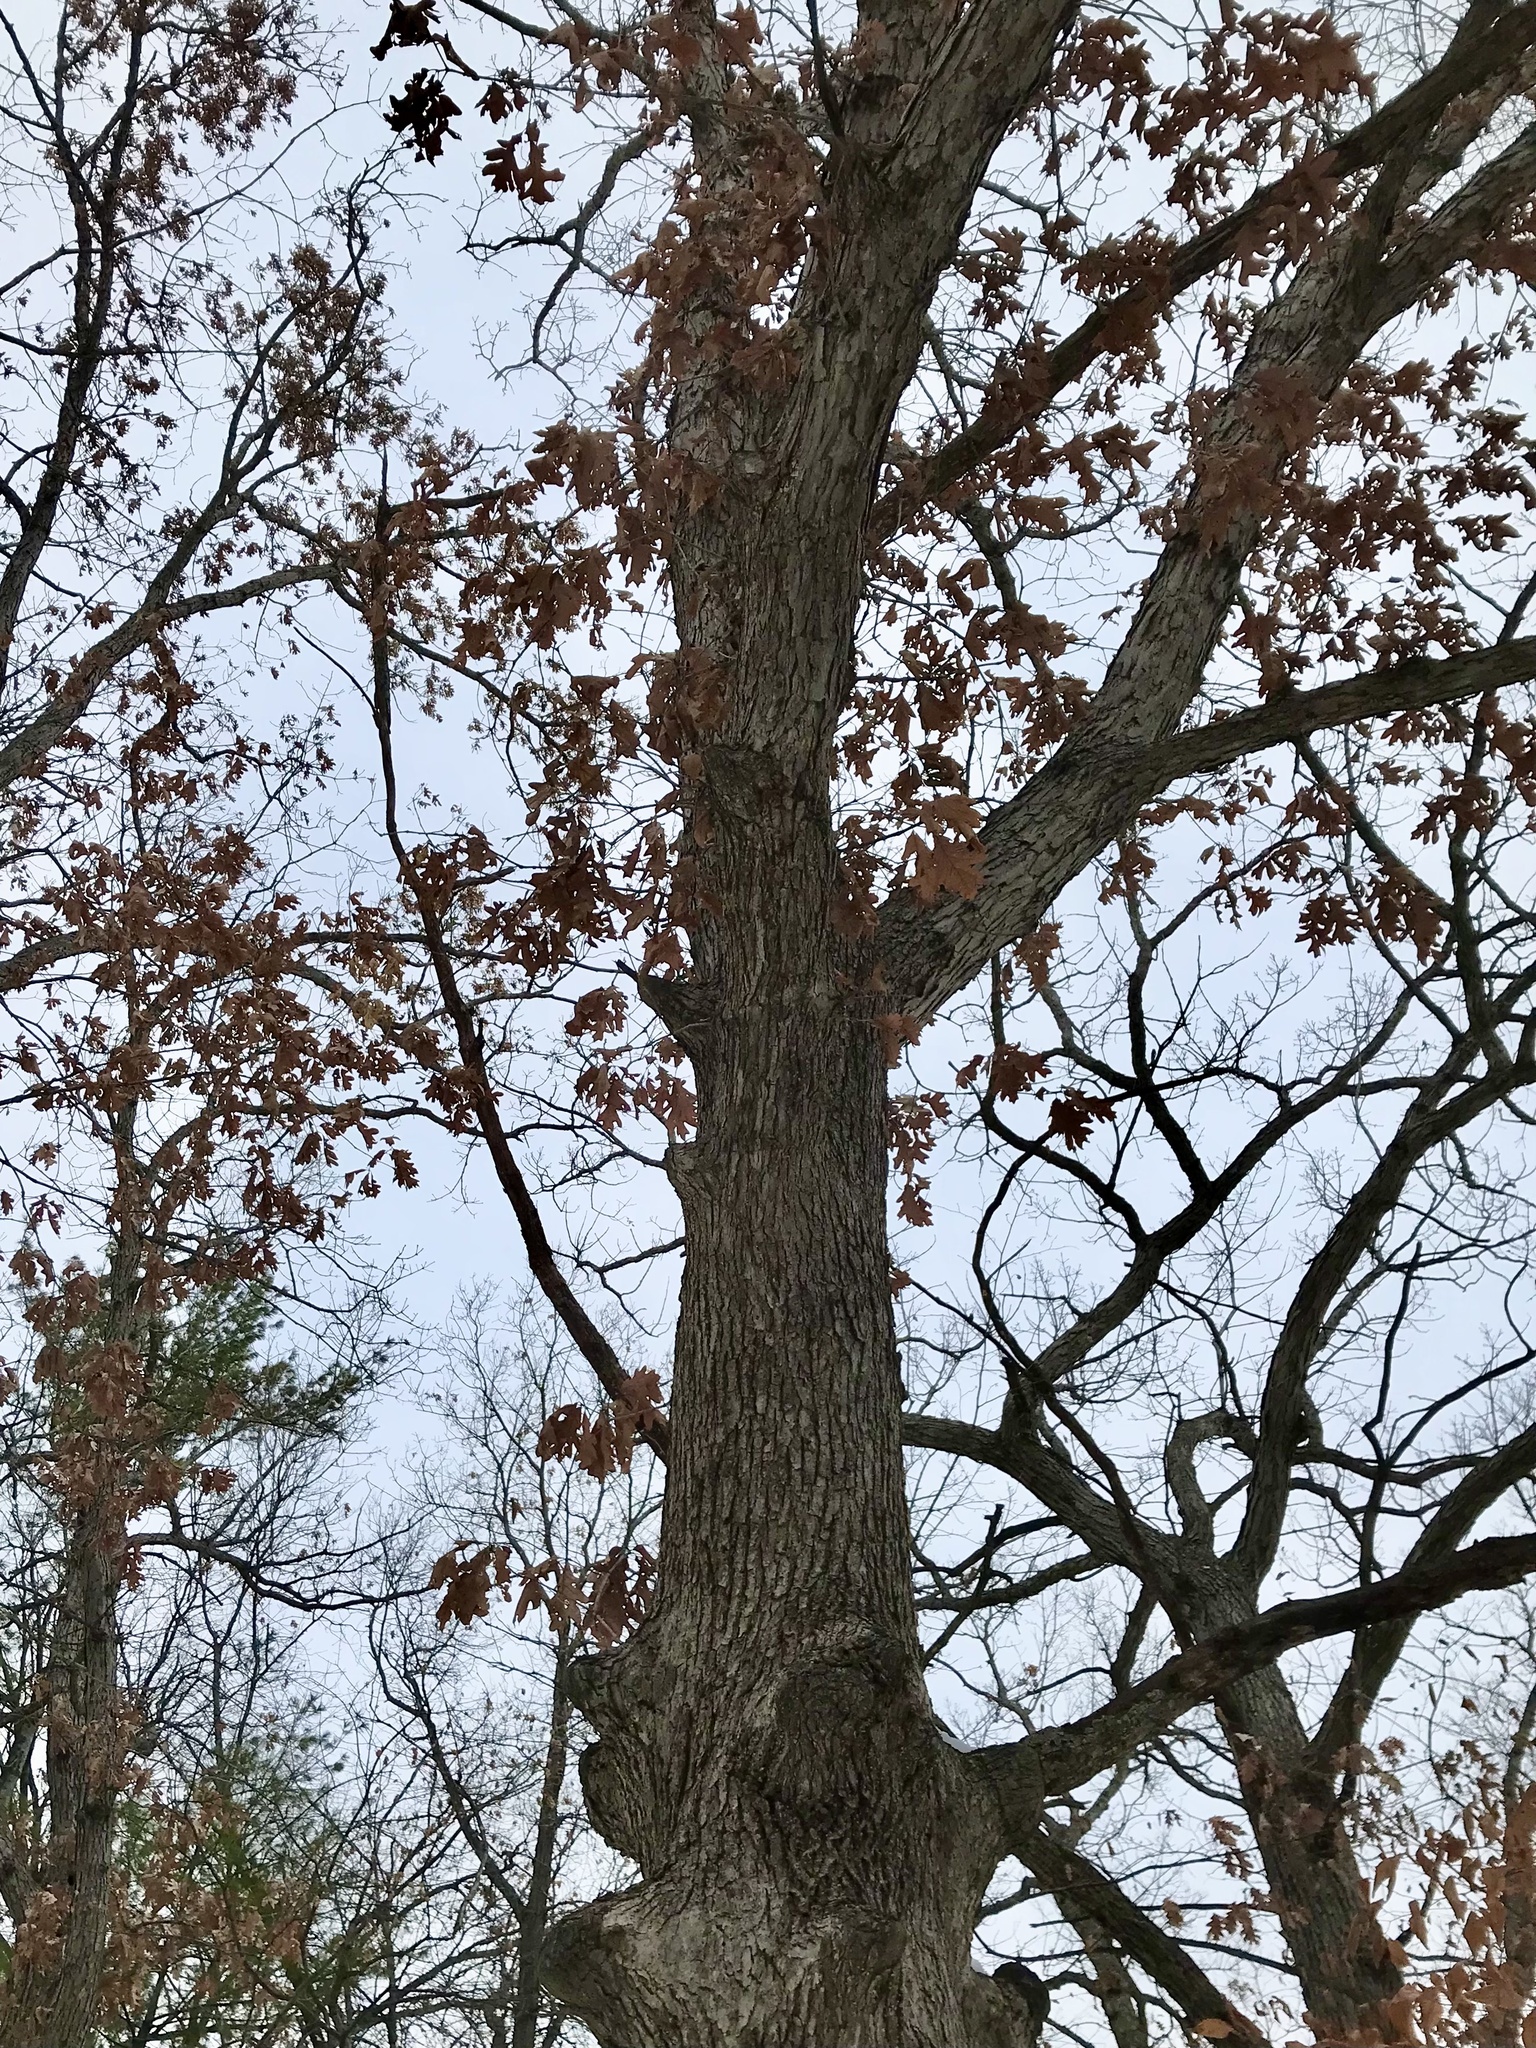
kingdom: Plantae
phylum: Tracheophyta
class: Magnoliopsida
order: Fagales
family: Fagaceae
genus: Quercus
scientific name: Quercus alba
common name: White oak
